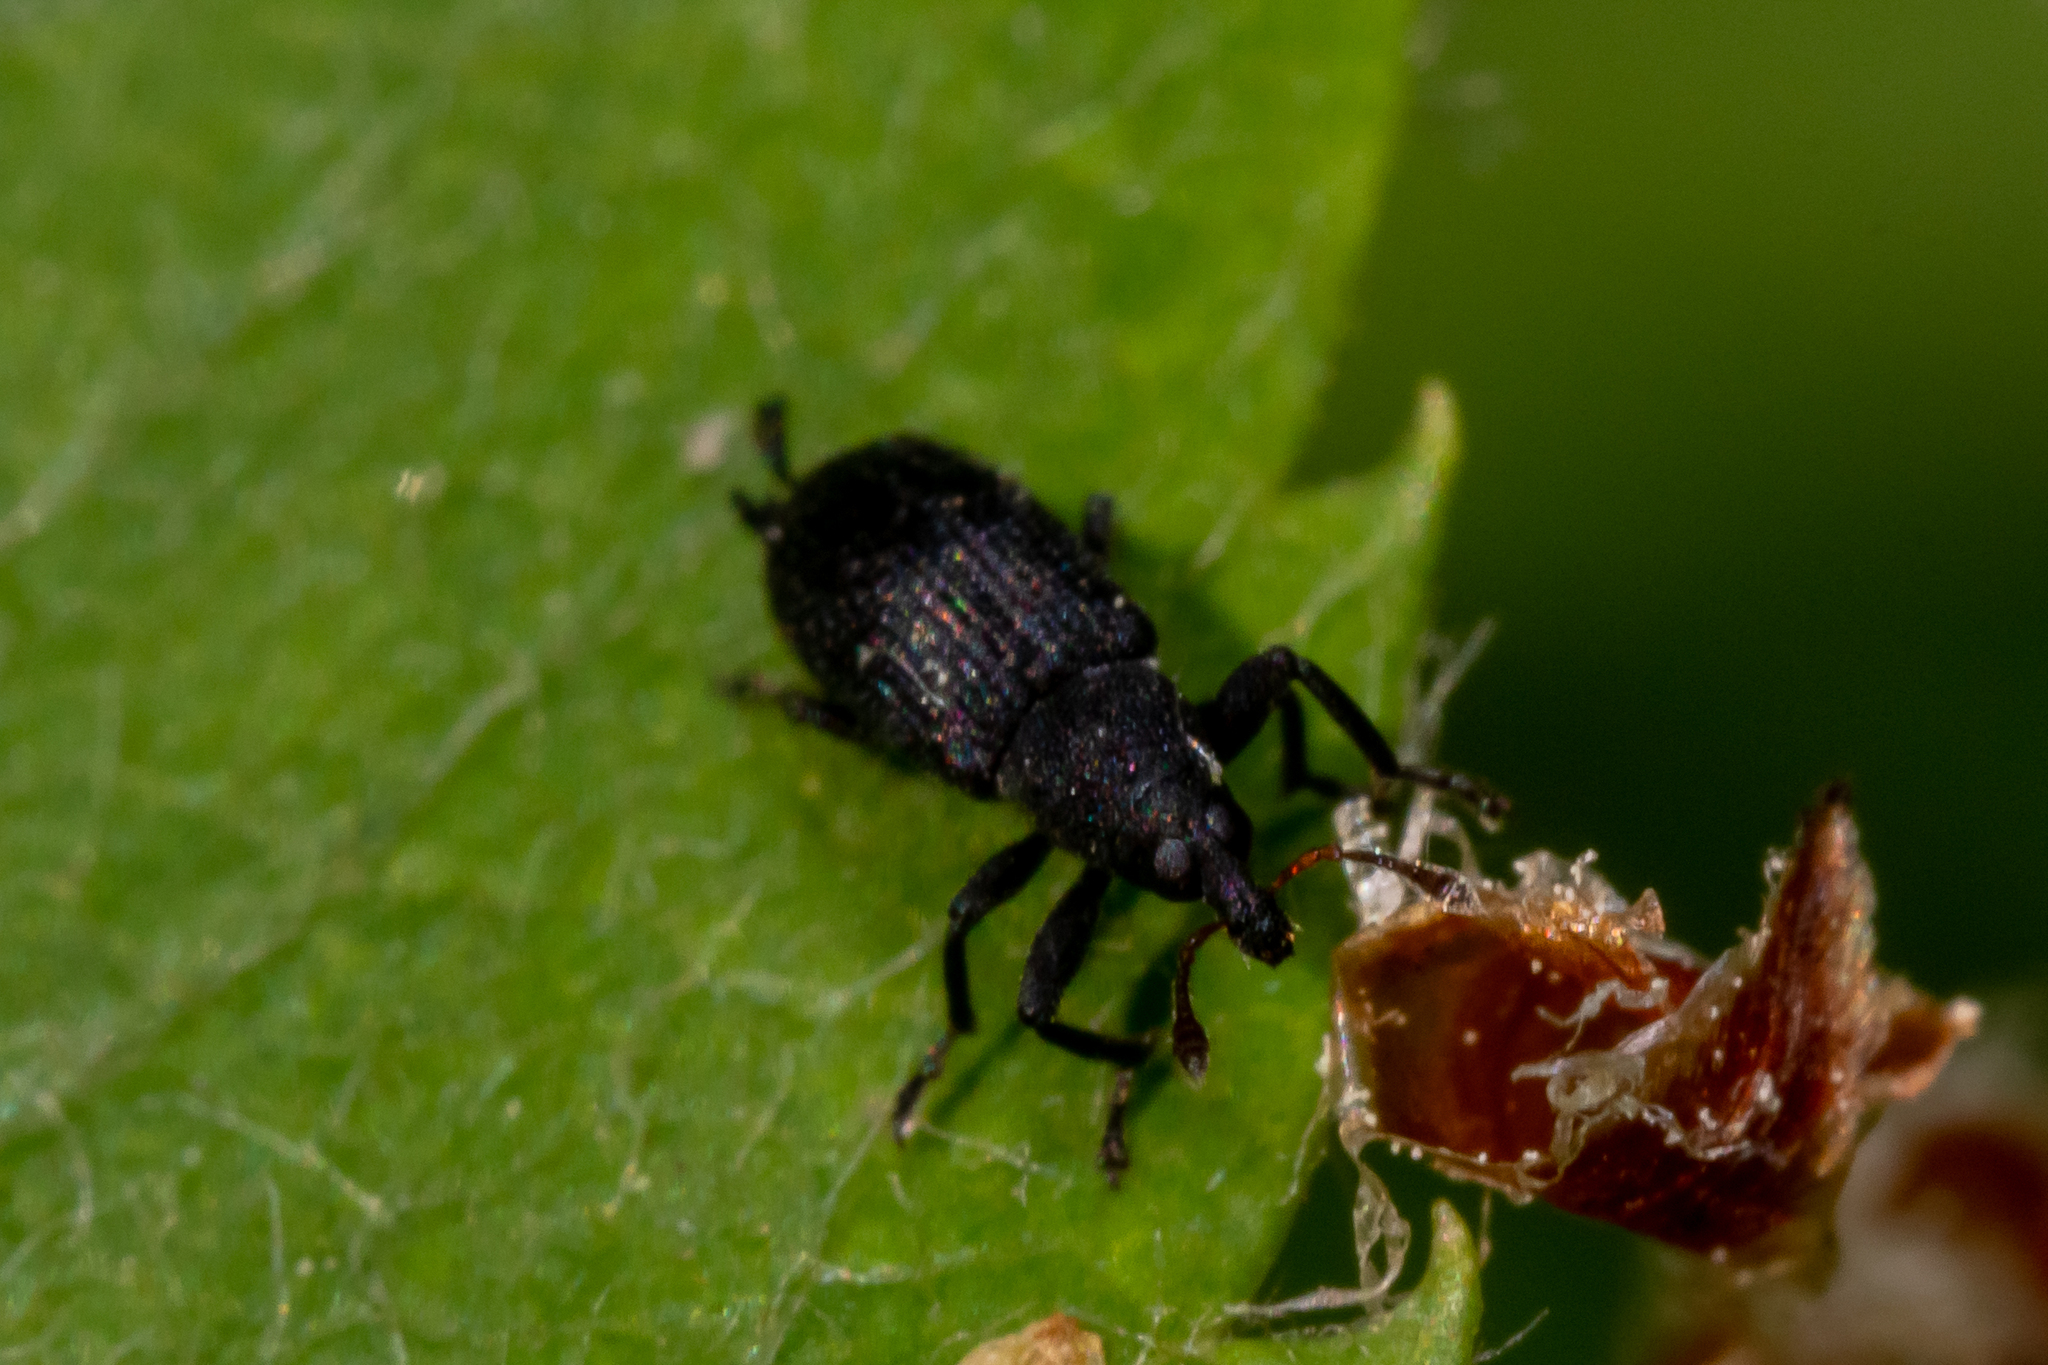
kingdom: Animalia
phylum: Arthropoda
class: Insecta
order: Coleoptera
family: Curculionidae
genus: Magdalis
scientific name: Magdalis ruficornis
